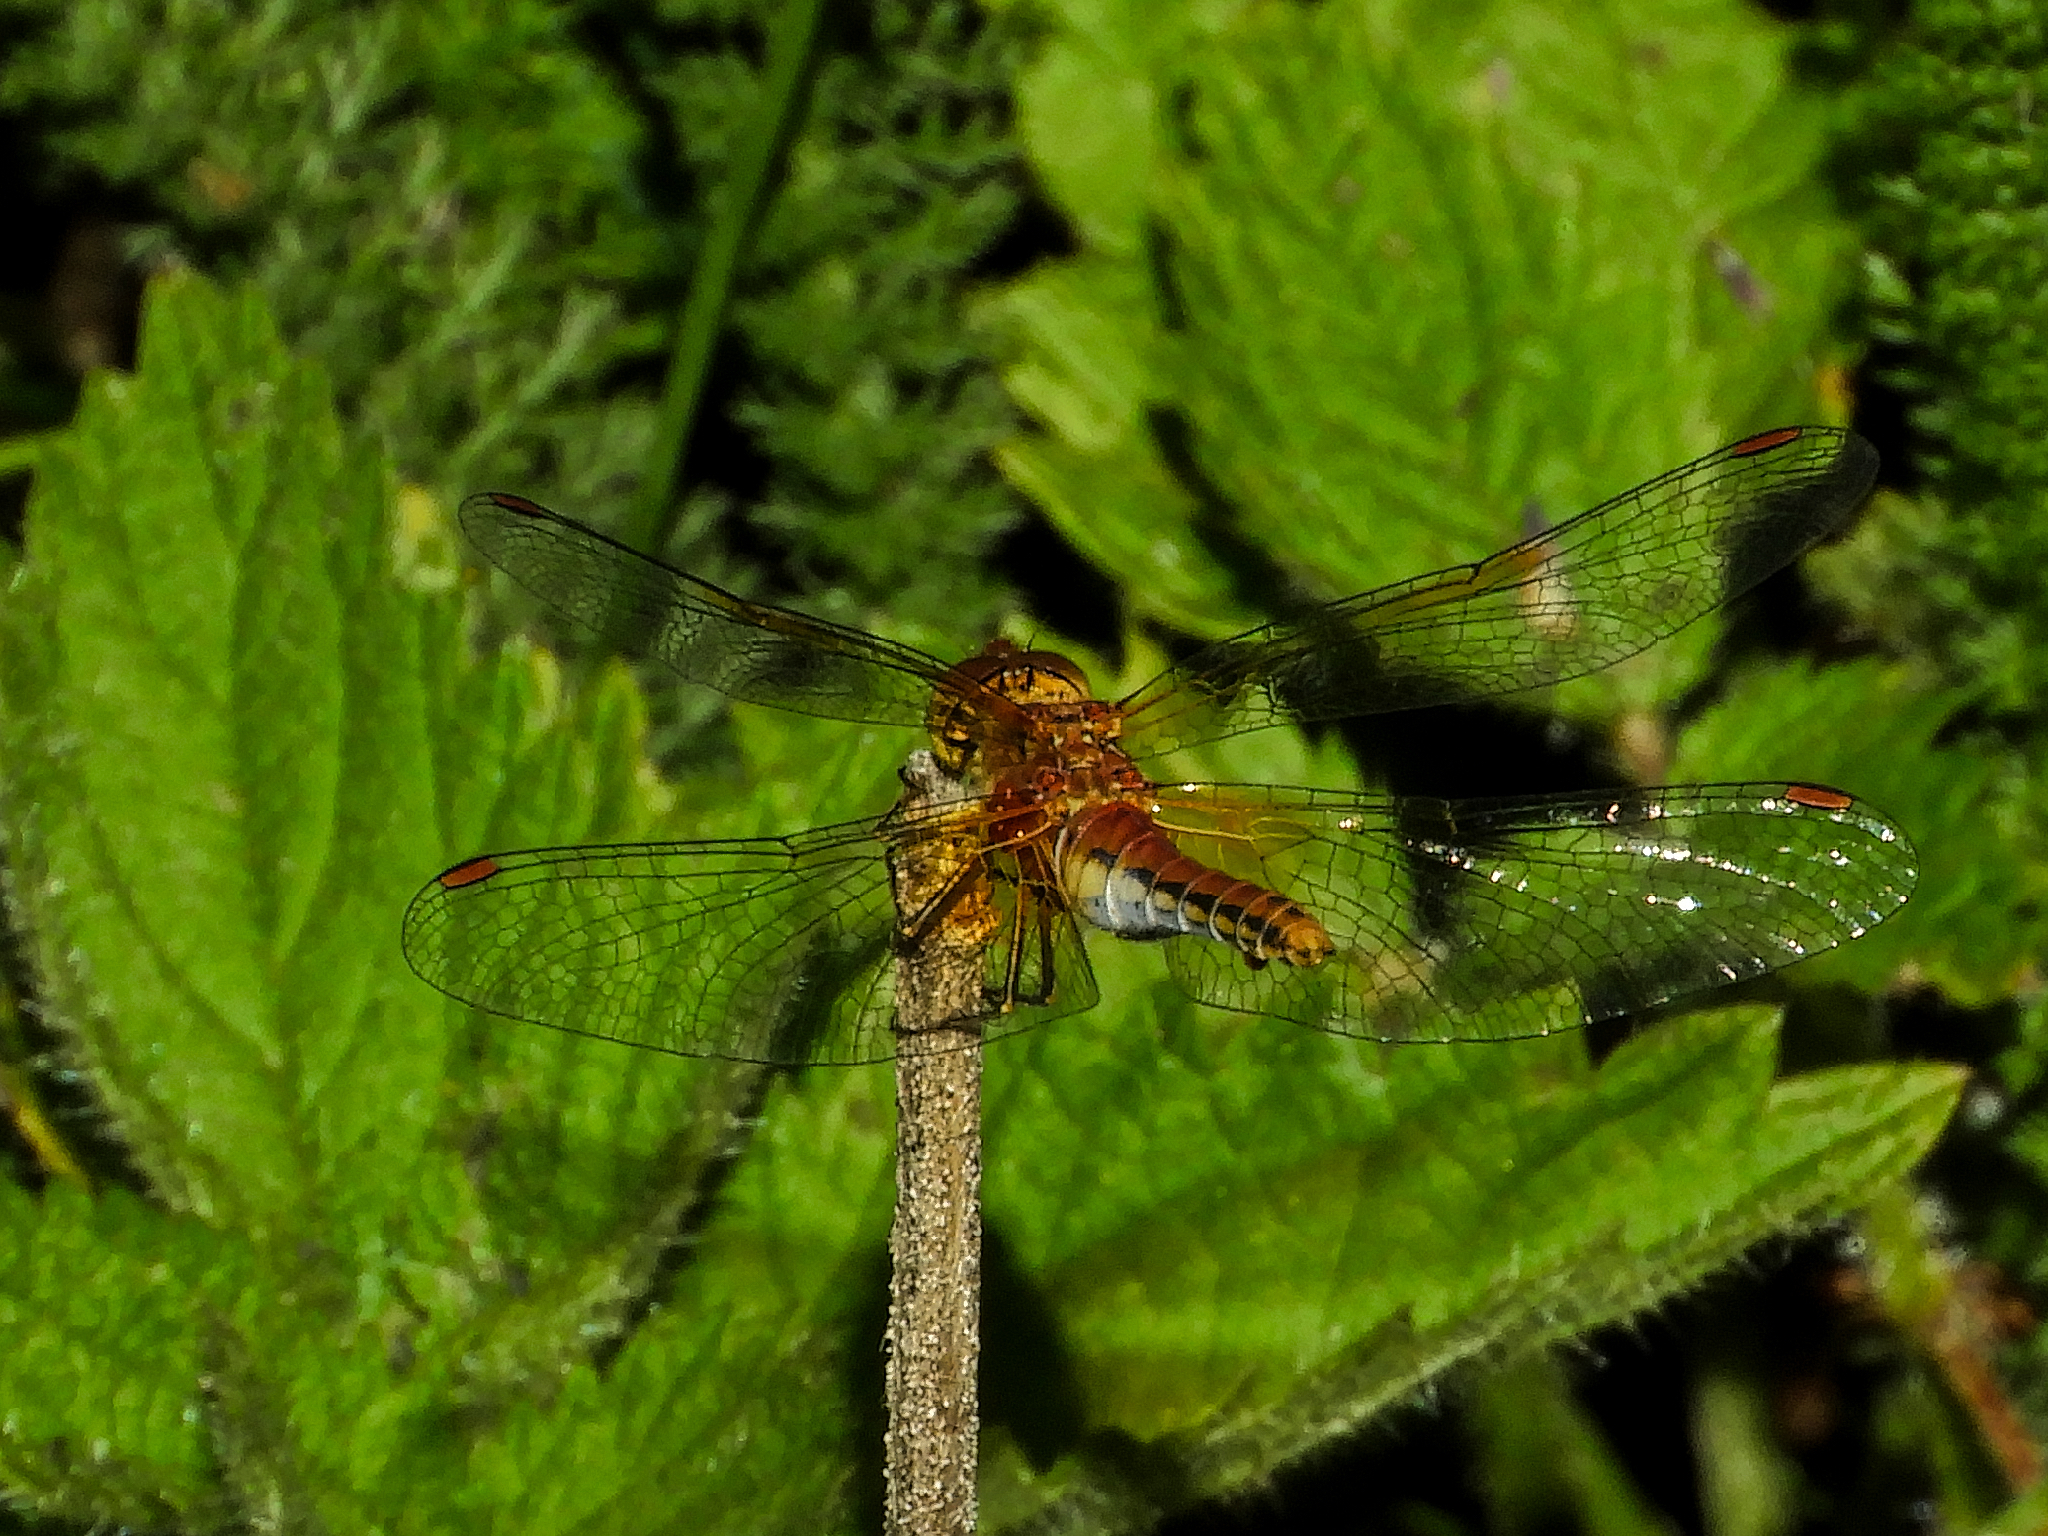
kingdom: Animalia
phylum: Arthropoda
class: Insecta
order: Odonata
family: Libellulidae
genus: Sympetrum
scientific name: Sympetrum flaveolum
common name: Yellow-winged darter
